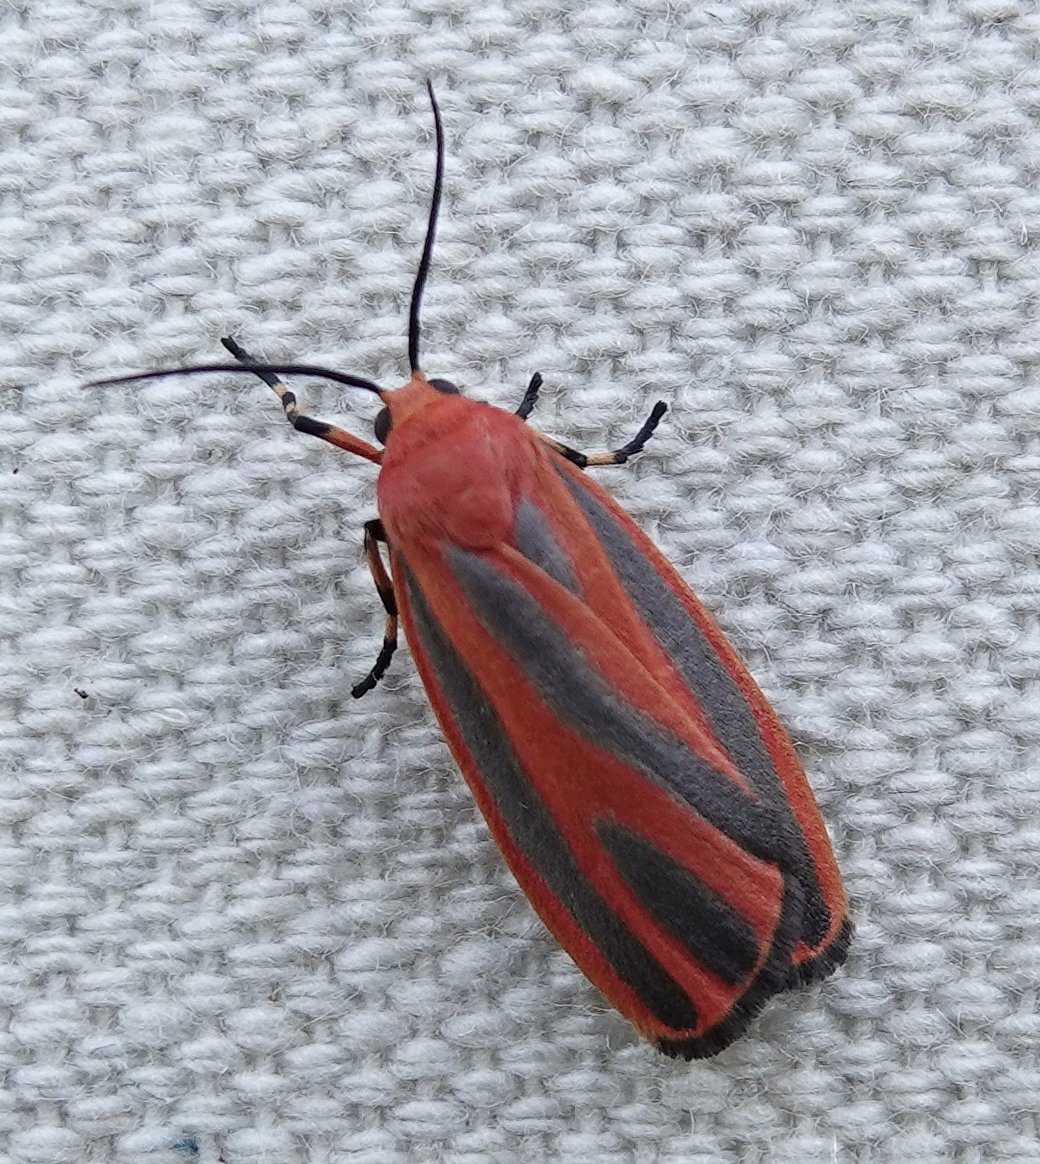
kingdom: Animalia
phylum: Arthropoda
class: Insecta
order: Lepidoptera
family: Erebidae
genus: Hypoprepia
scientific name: Hypoprepia miniata
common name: Scarlet-winged lichen moth
